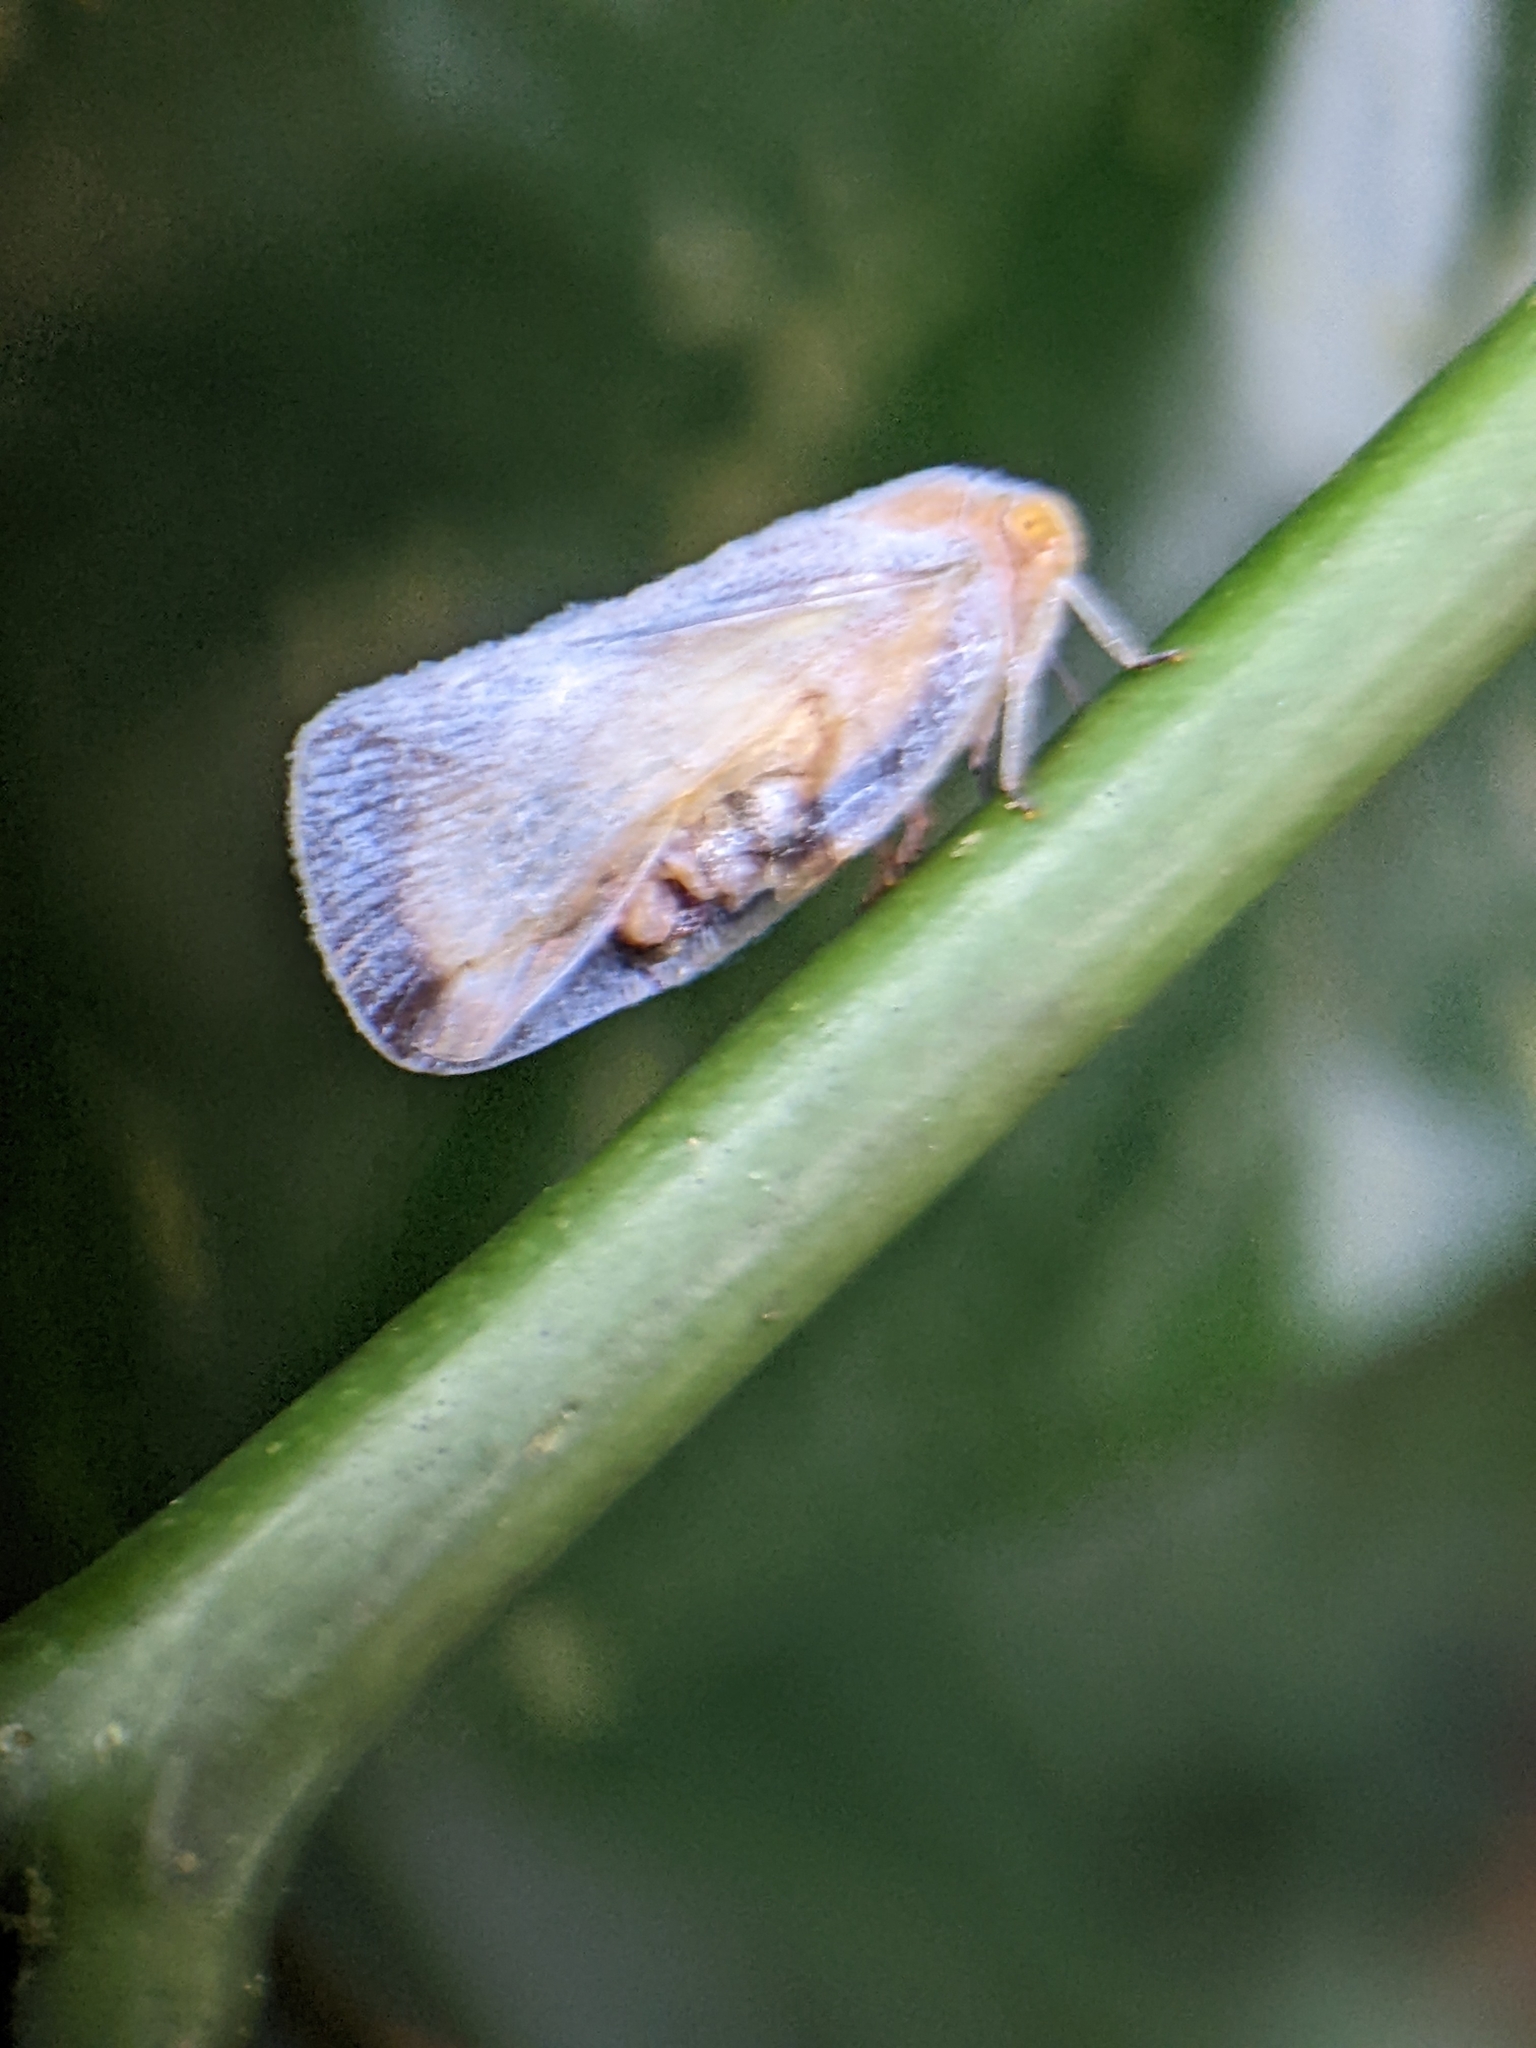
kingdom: Animalia
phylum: Arthropoda
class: Insecta
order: Hemiptera
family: Flatidae
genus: Flatomorpha
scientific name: Flatomorpha umbrimargo
